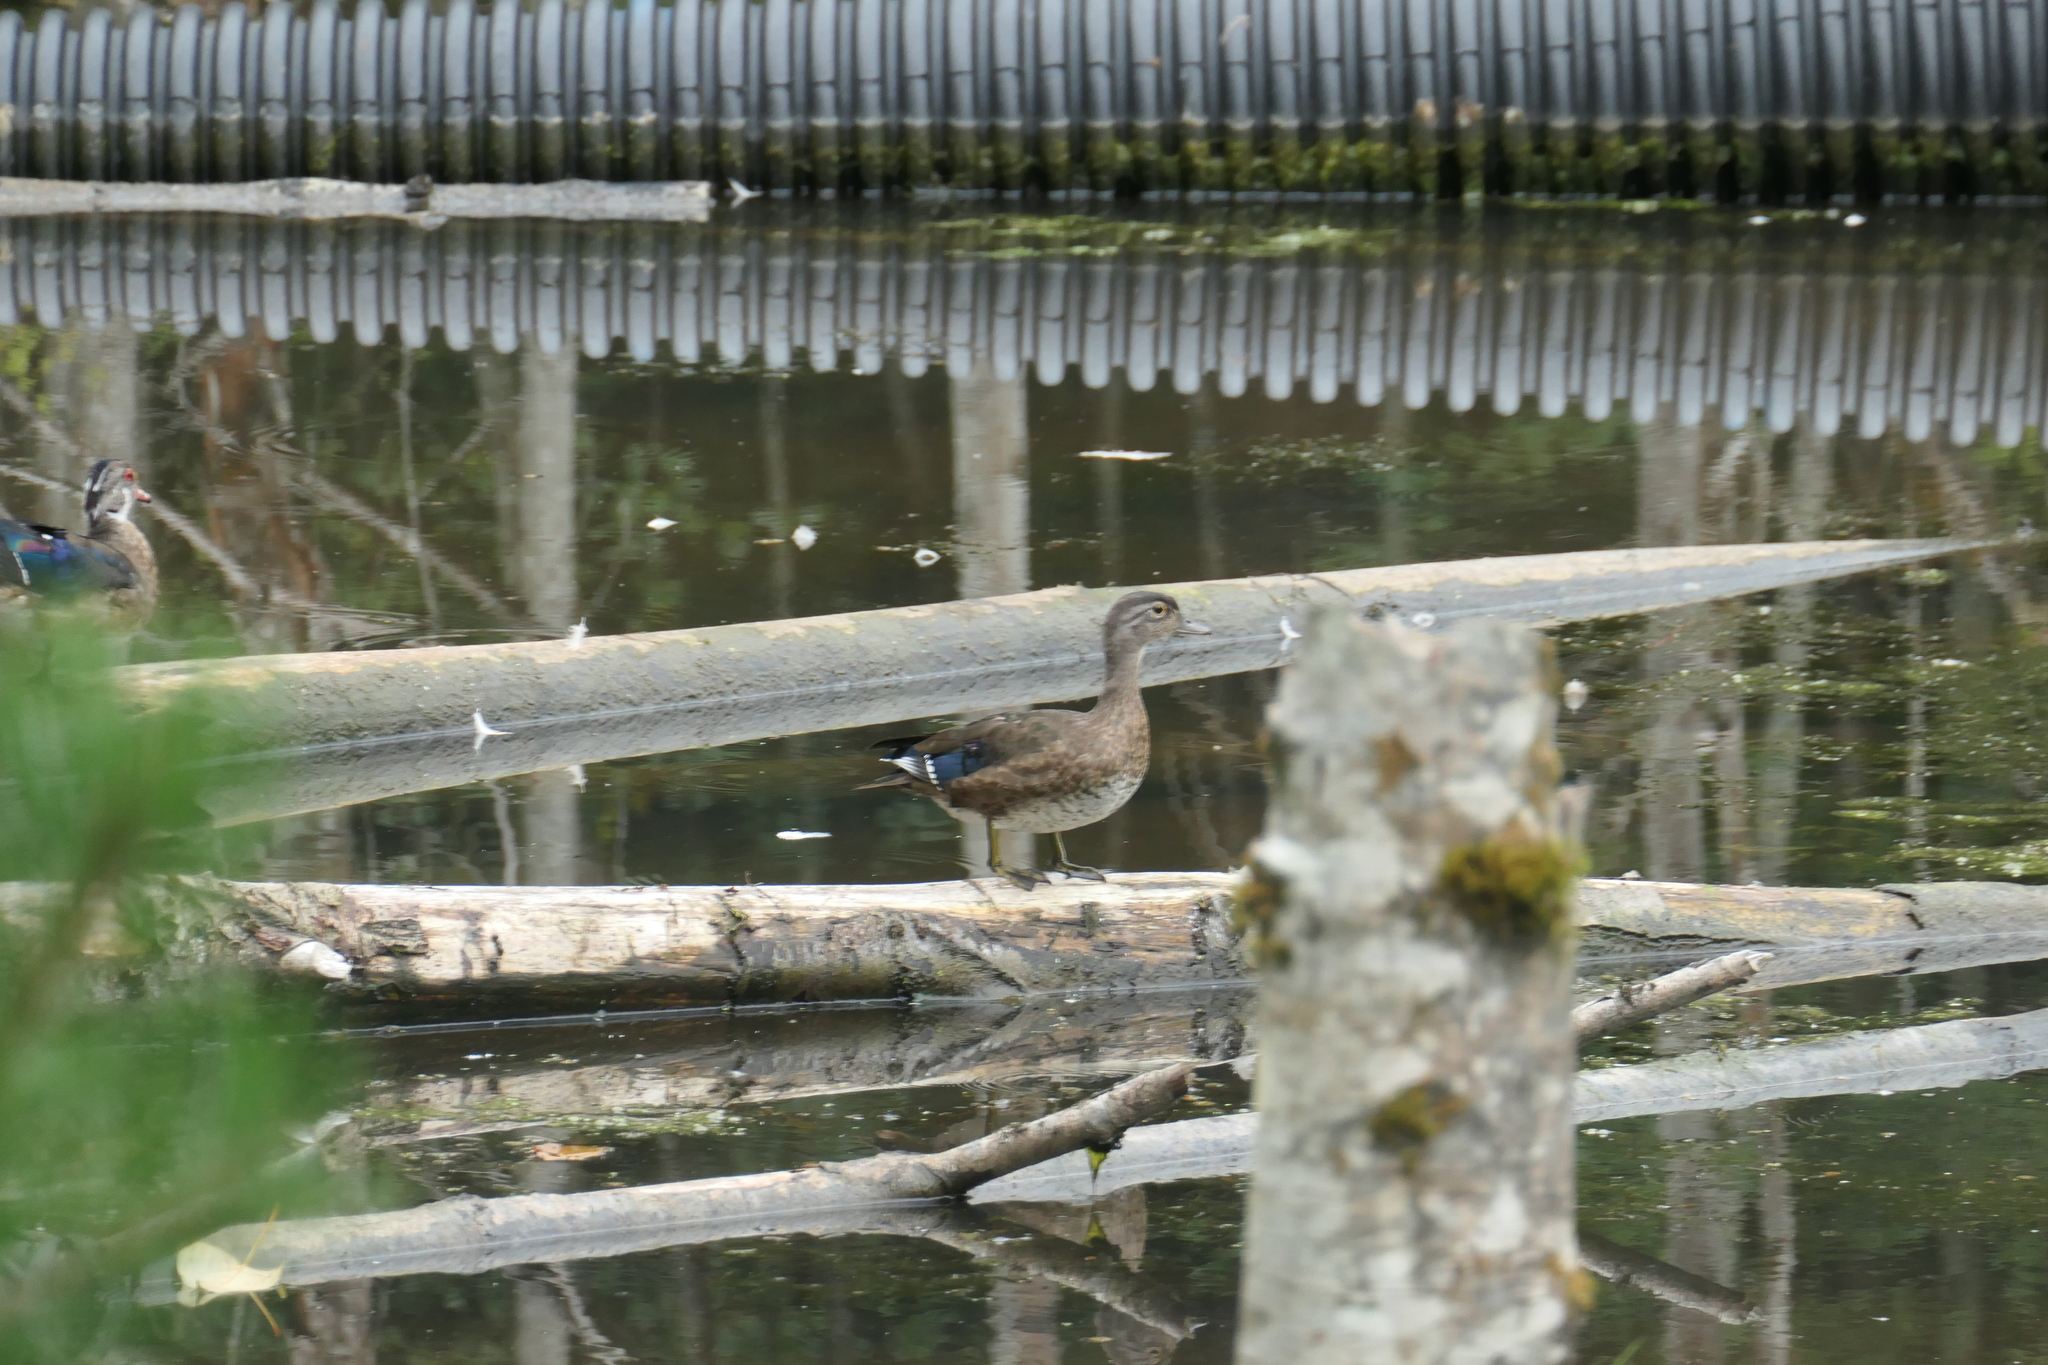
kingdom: Animalia
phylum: Chordata
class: Aves
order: Anseriformes
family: Anatidae
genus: Aix
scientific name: Aix sponsa
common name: Wood duck
